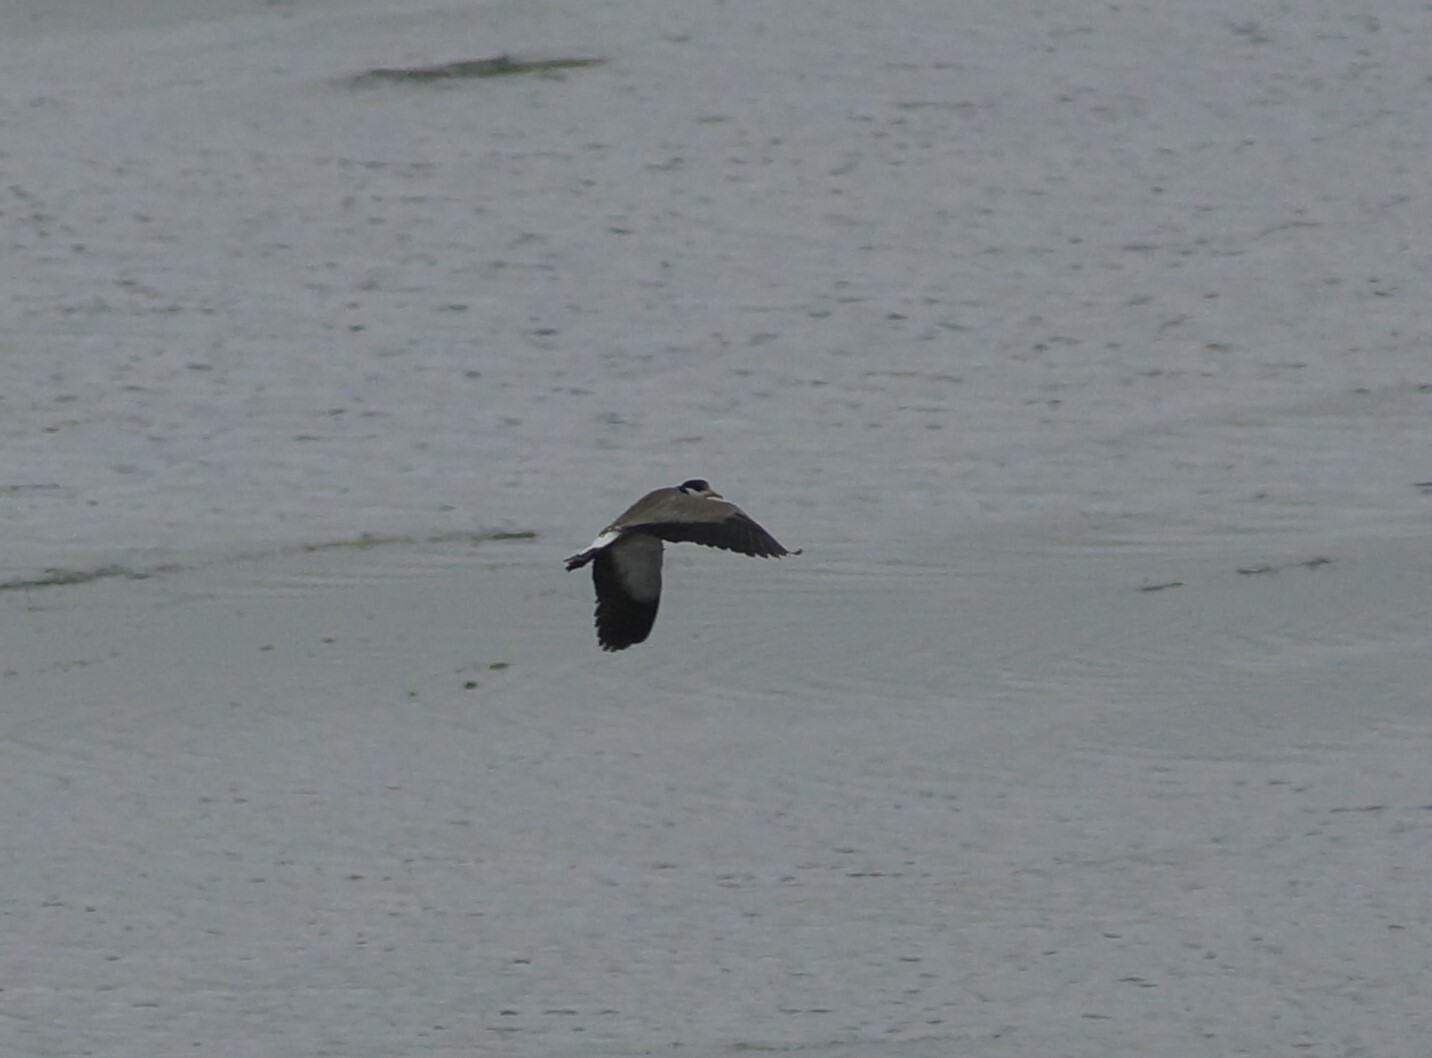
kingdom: Animalia
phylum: Chordata
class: Aves
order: Charadriiformes
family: Charadriidae
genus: Vanellus
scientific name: Vanellus miles
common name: Masked lapwing
